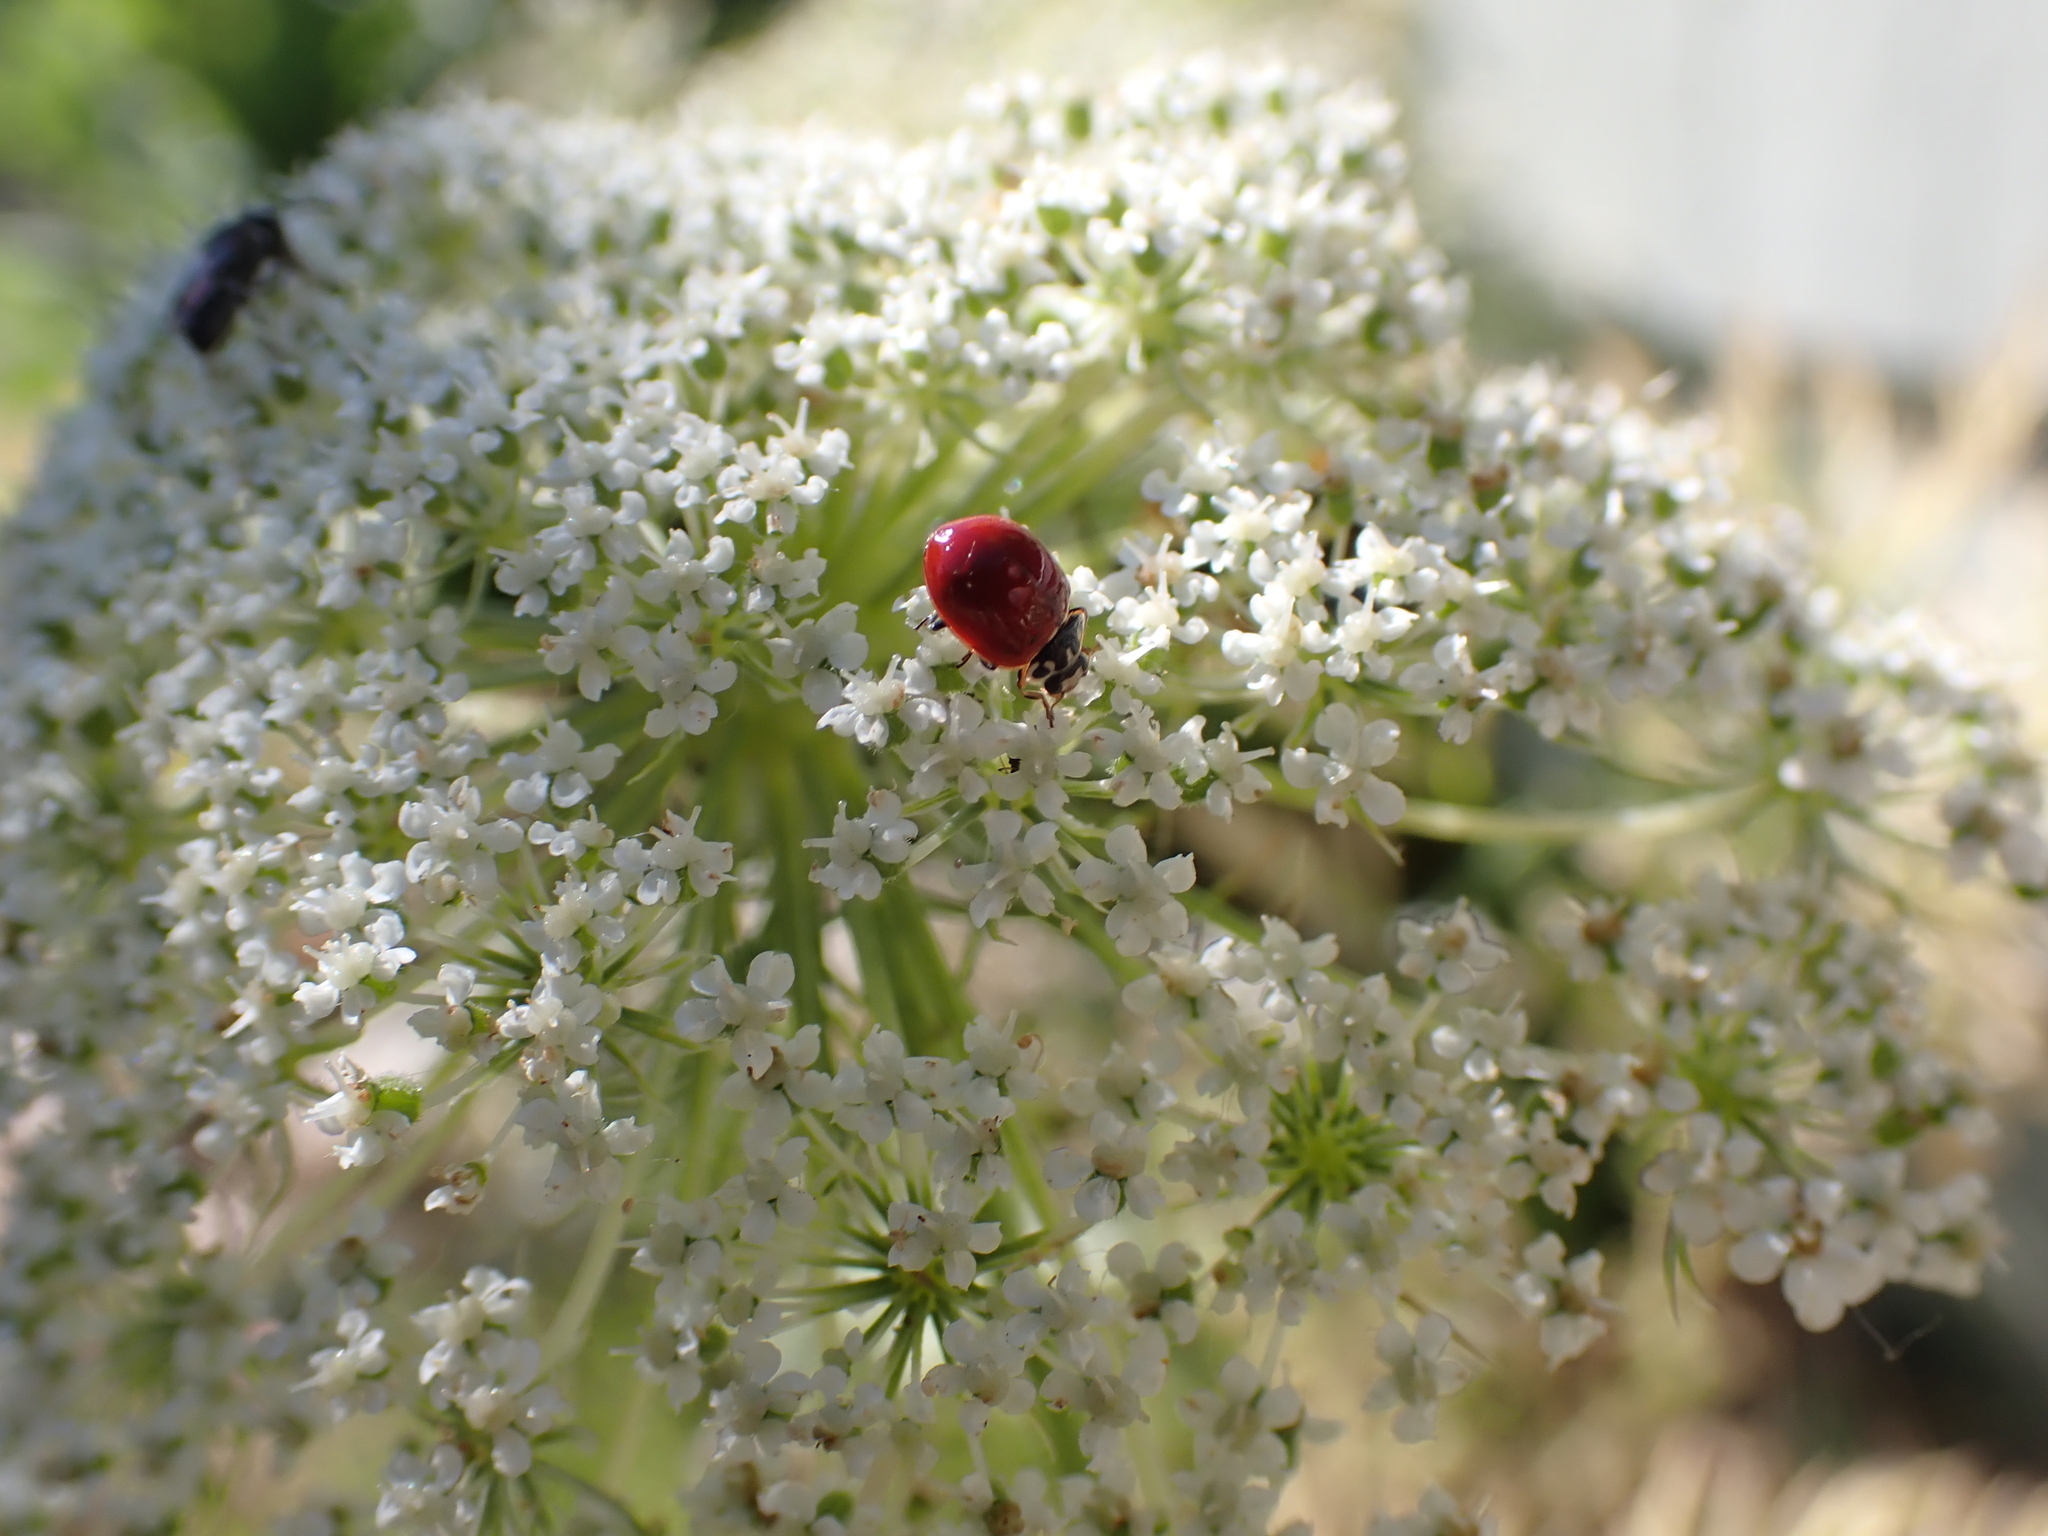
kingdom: Animalia
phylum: Arthropoda
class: Insecta
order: Coleoptera
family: Coccinellidae
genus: Cycloneda
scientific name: Cycloneda polita
